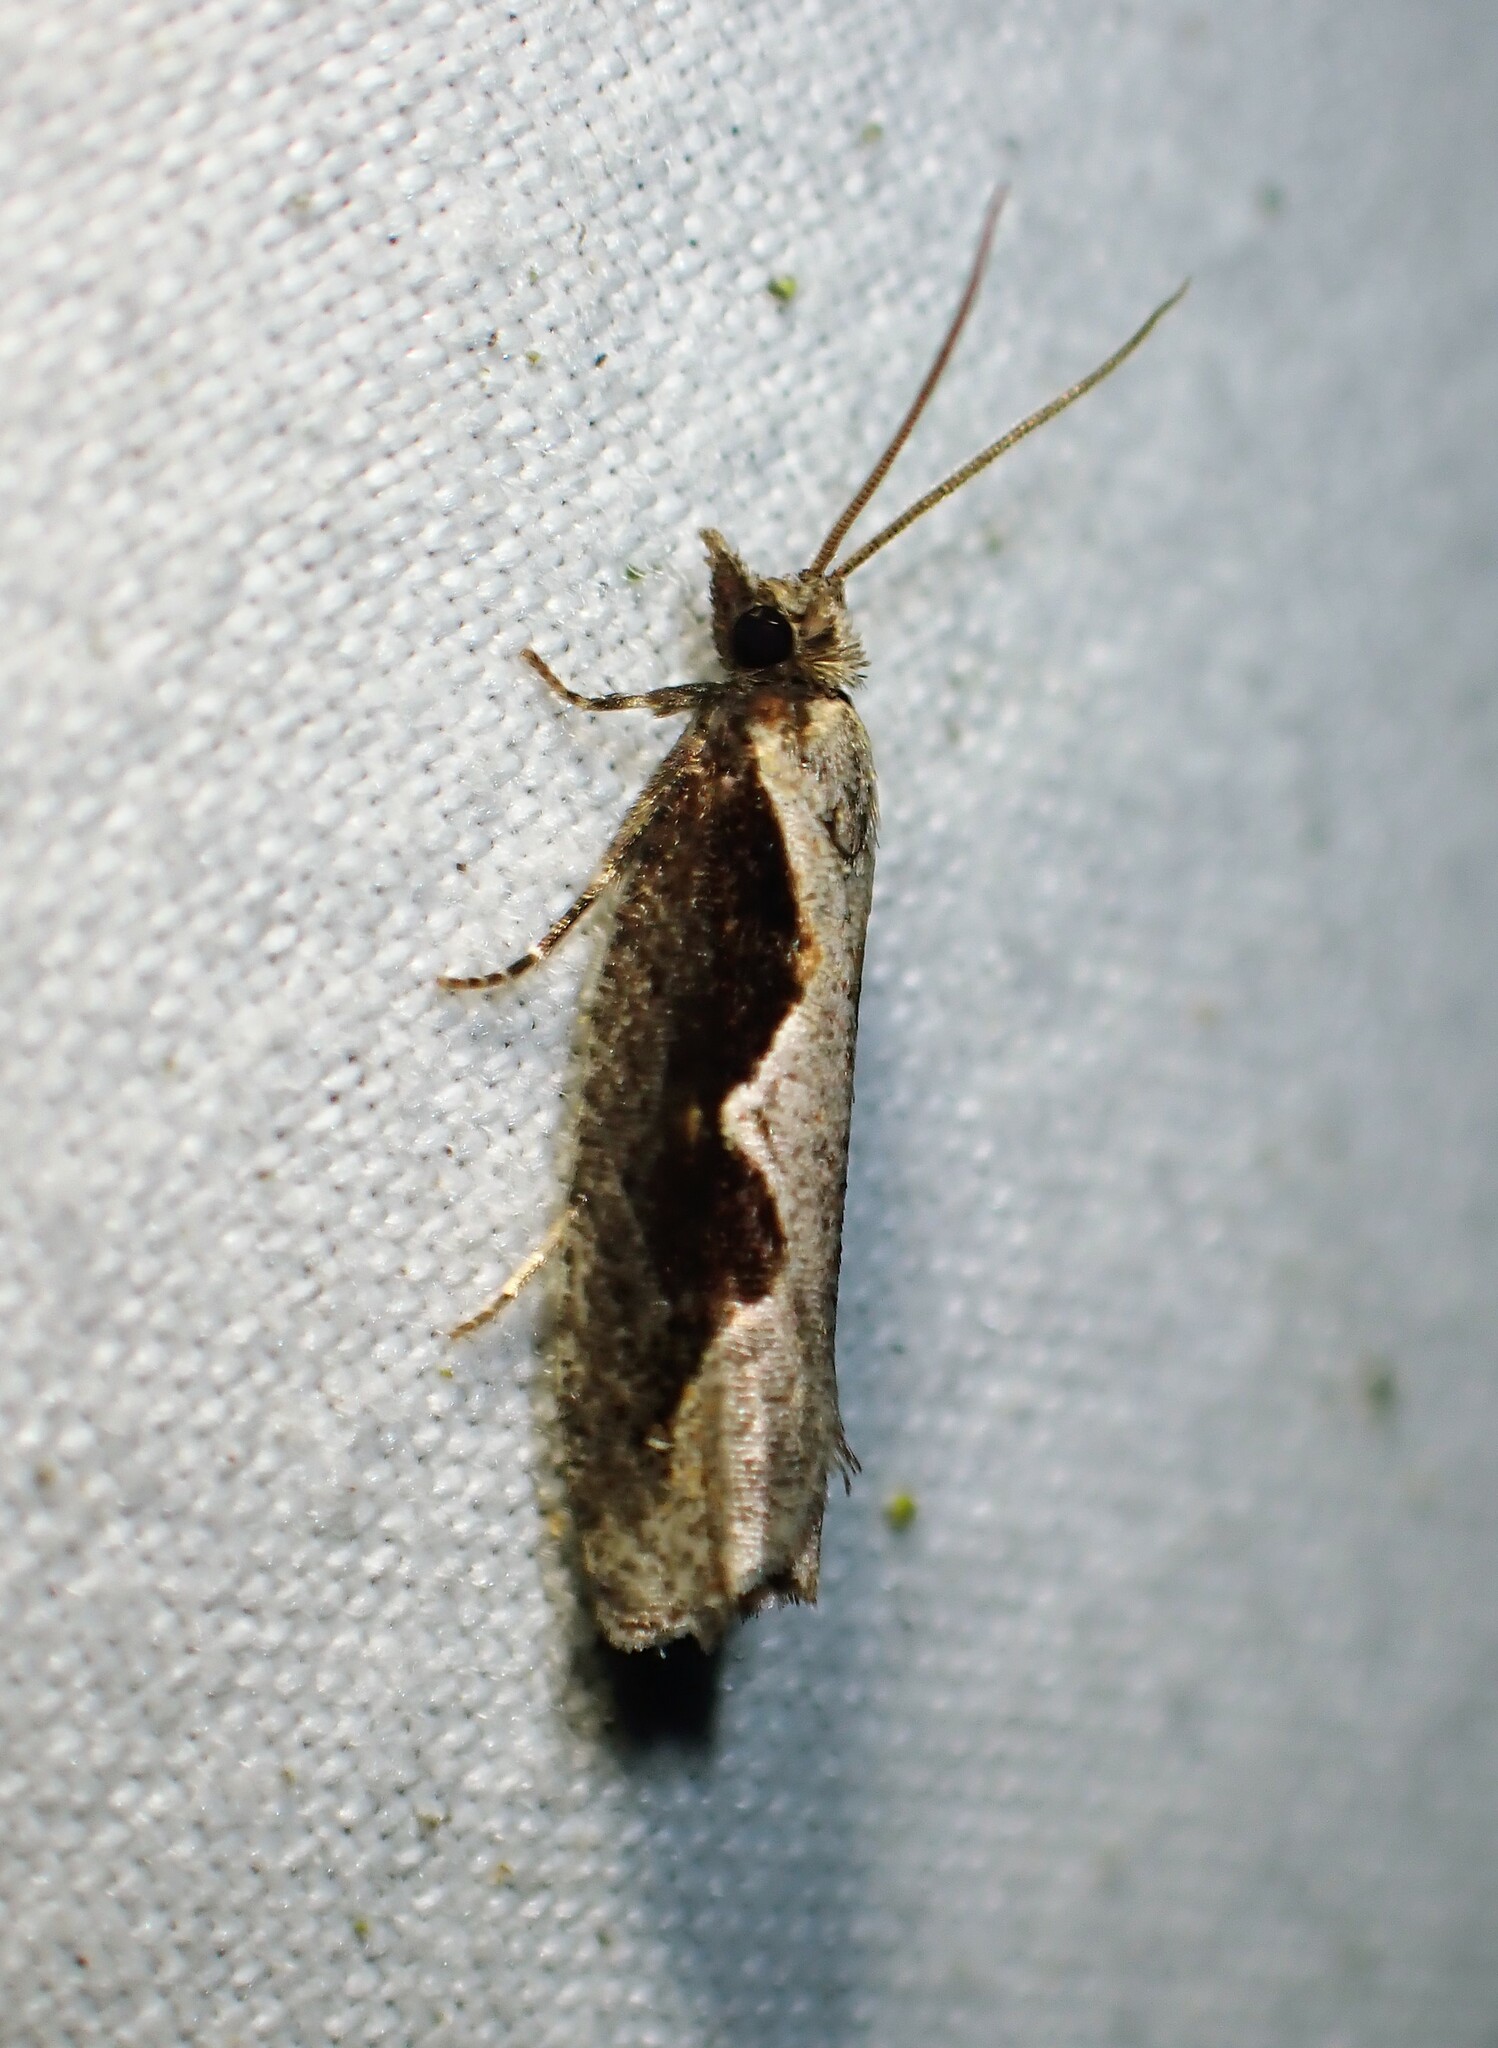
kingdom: Animalia
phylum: Arthropoda
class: Insecta
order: Lepidoptera
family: Tortricidae
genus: Epinotia
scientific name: Epinotia lindana
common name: Diamondback epinotia moth
